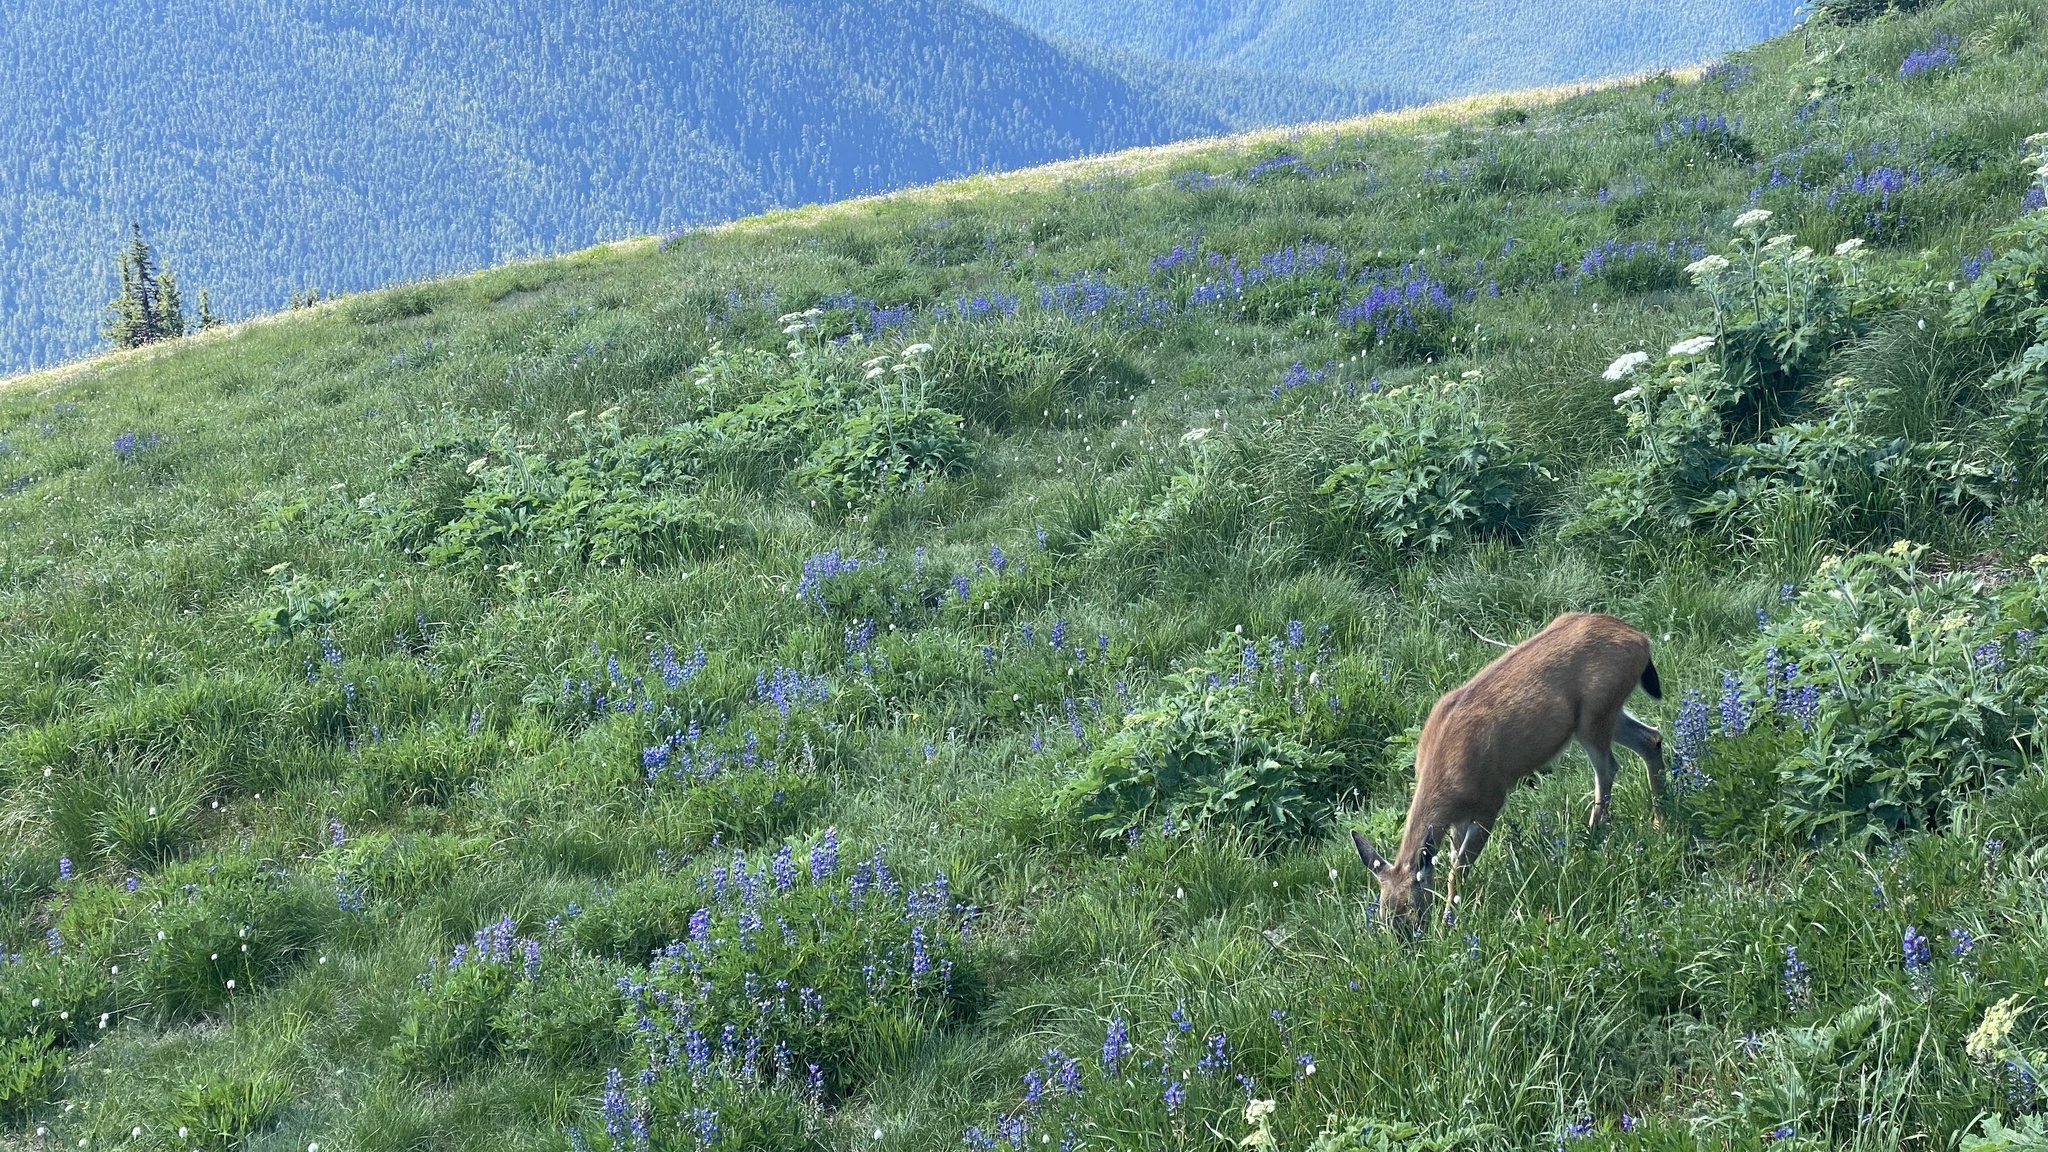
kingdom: Animalia
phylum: Chordata
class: Mammalia
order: Artiodactyla
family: Cervidae
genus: Odocoileus
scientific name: Odocoileus hemionus
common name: Mule deer
